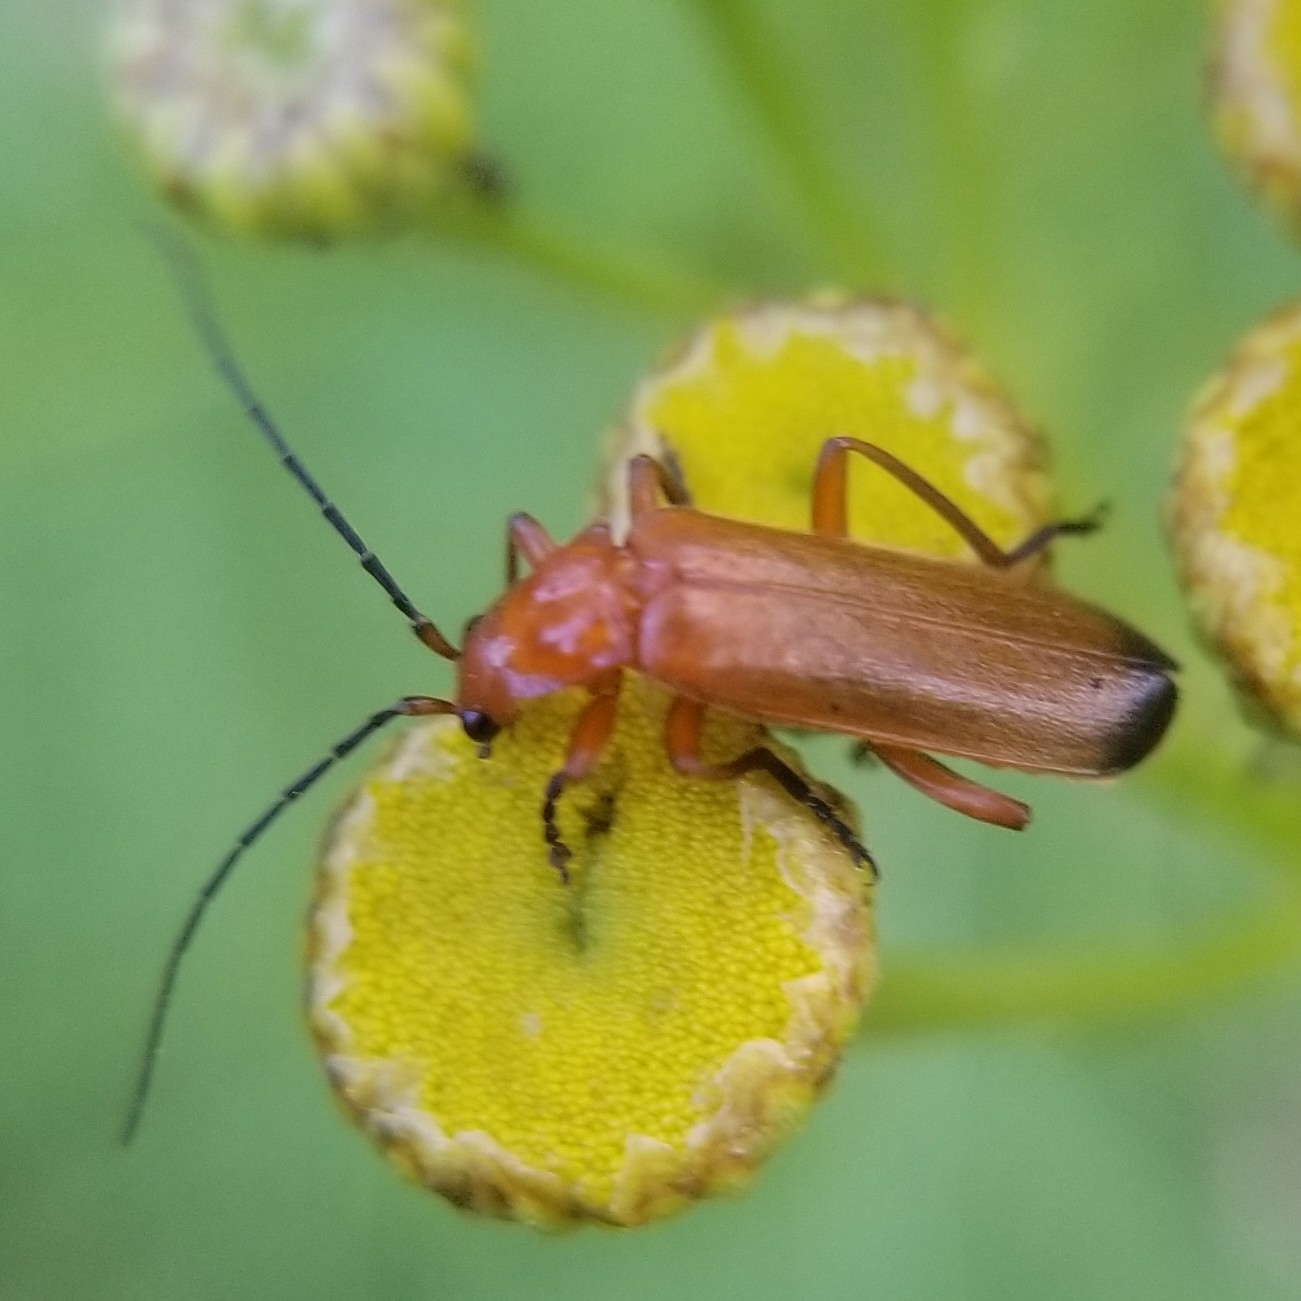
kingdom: Animalia
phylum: Arthropoda
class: Insecta
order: Coleoptera
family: Cantharidae
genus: Rhagonycha
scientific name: Rhagonycha fulva
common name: Common red soldier beetle
